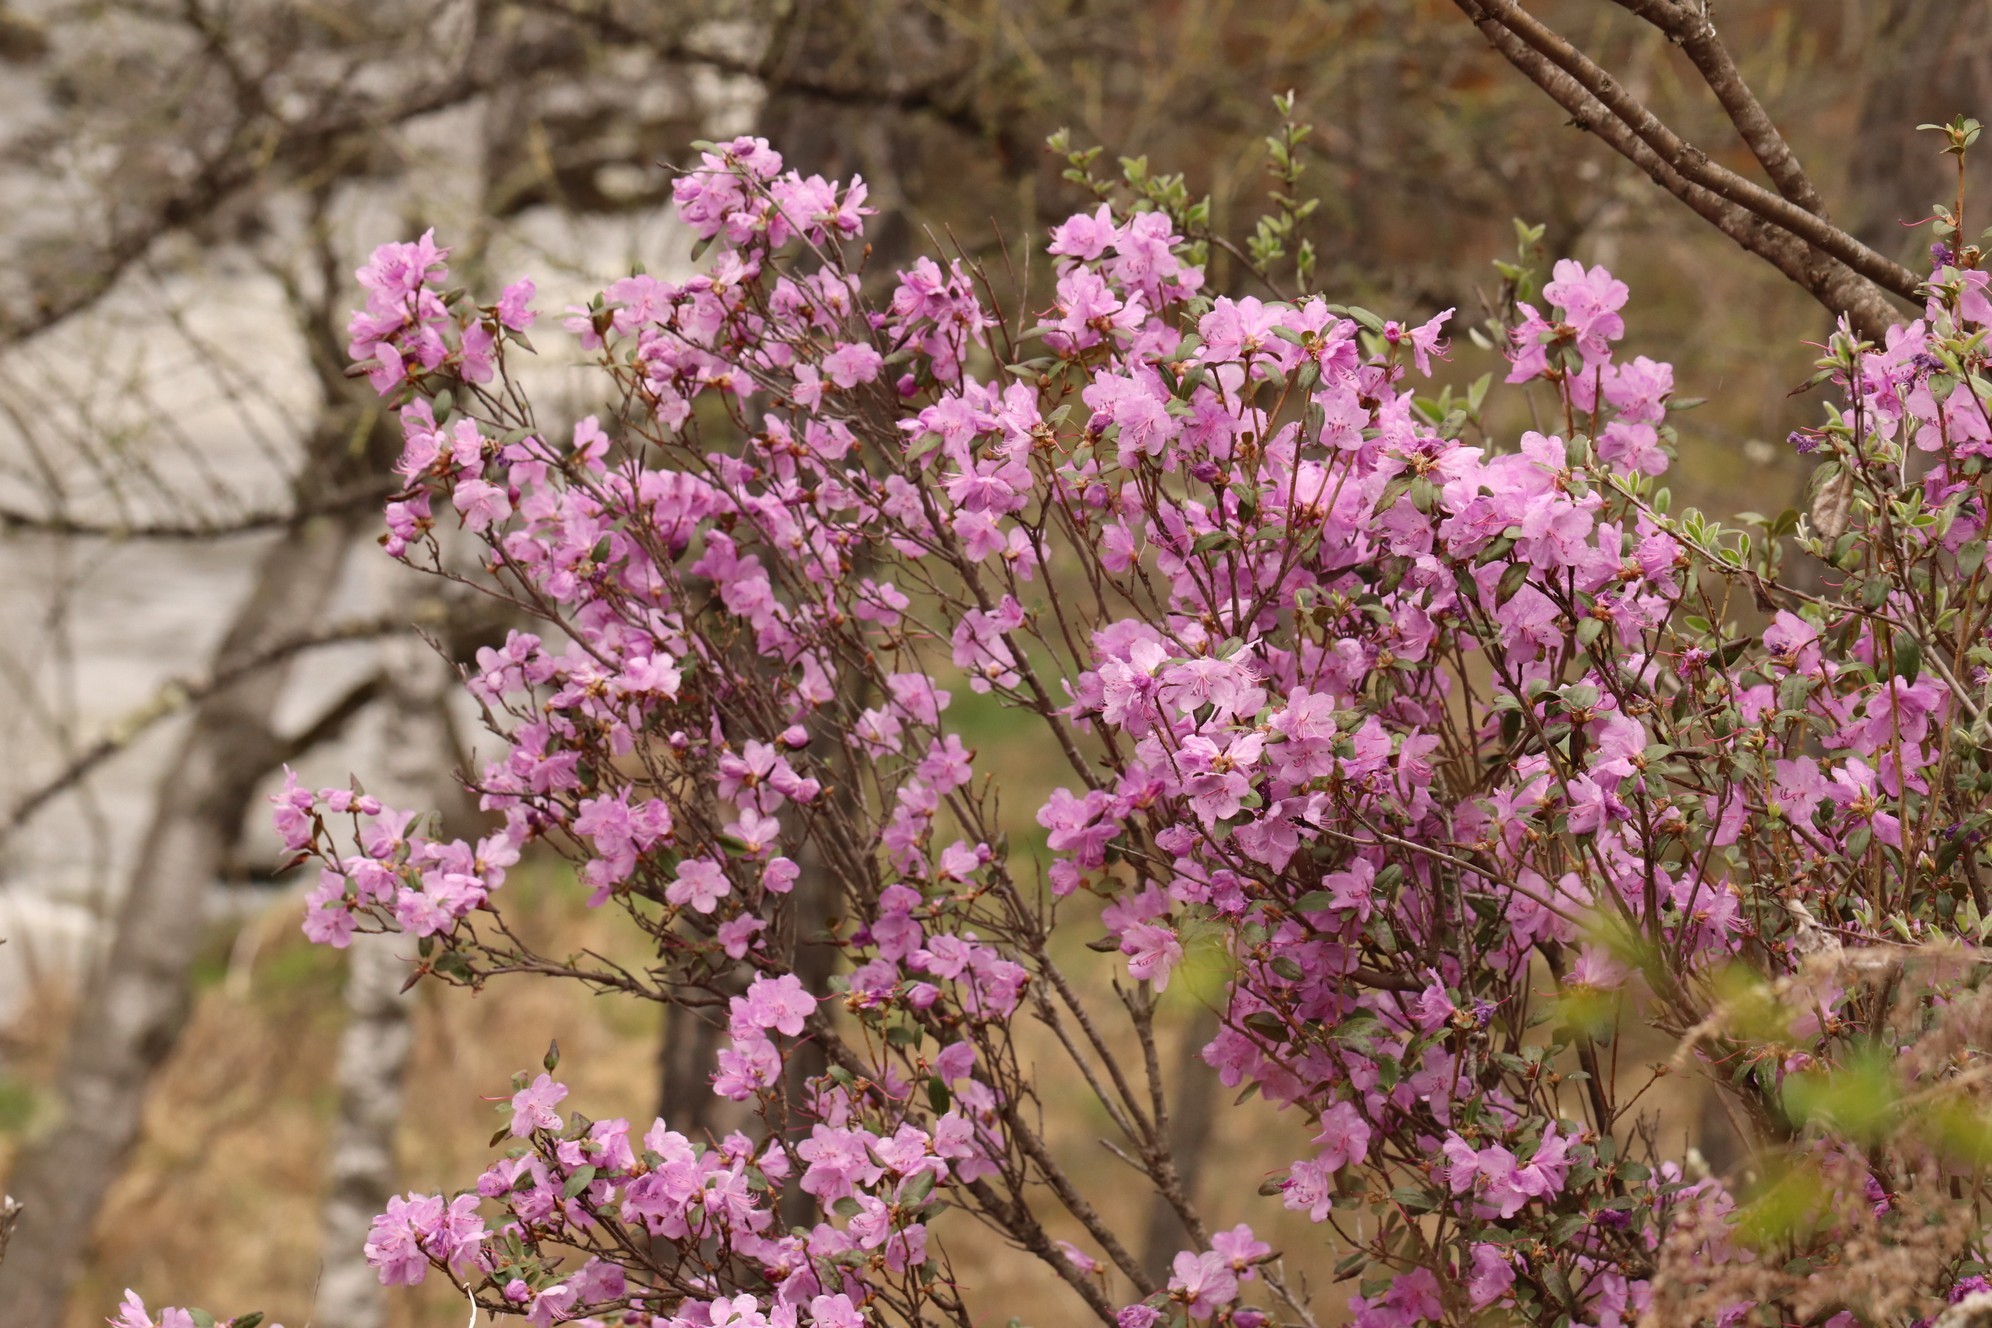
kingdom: Plantae
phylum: Tracheophyta
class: Magnoliopsida
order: Ericales
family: Ericaceae
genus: Rhododendron
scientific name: Rhododendron dauricum
